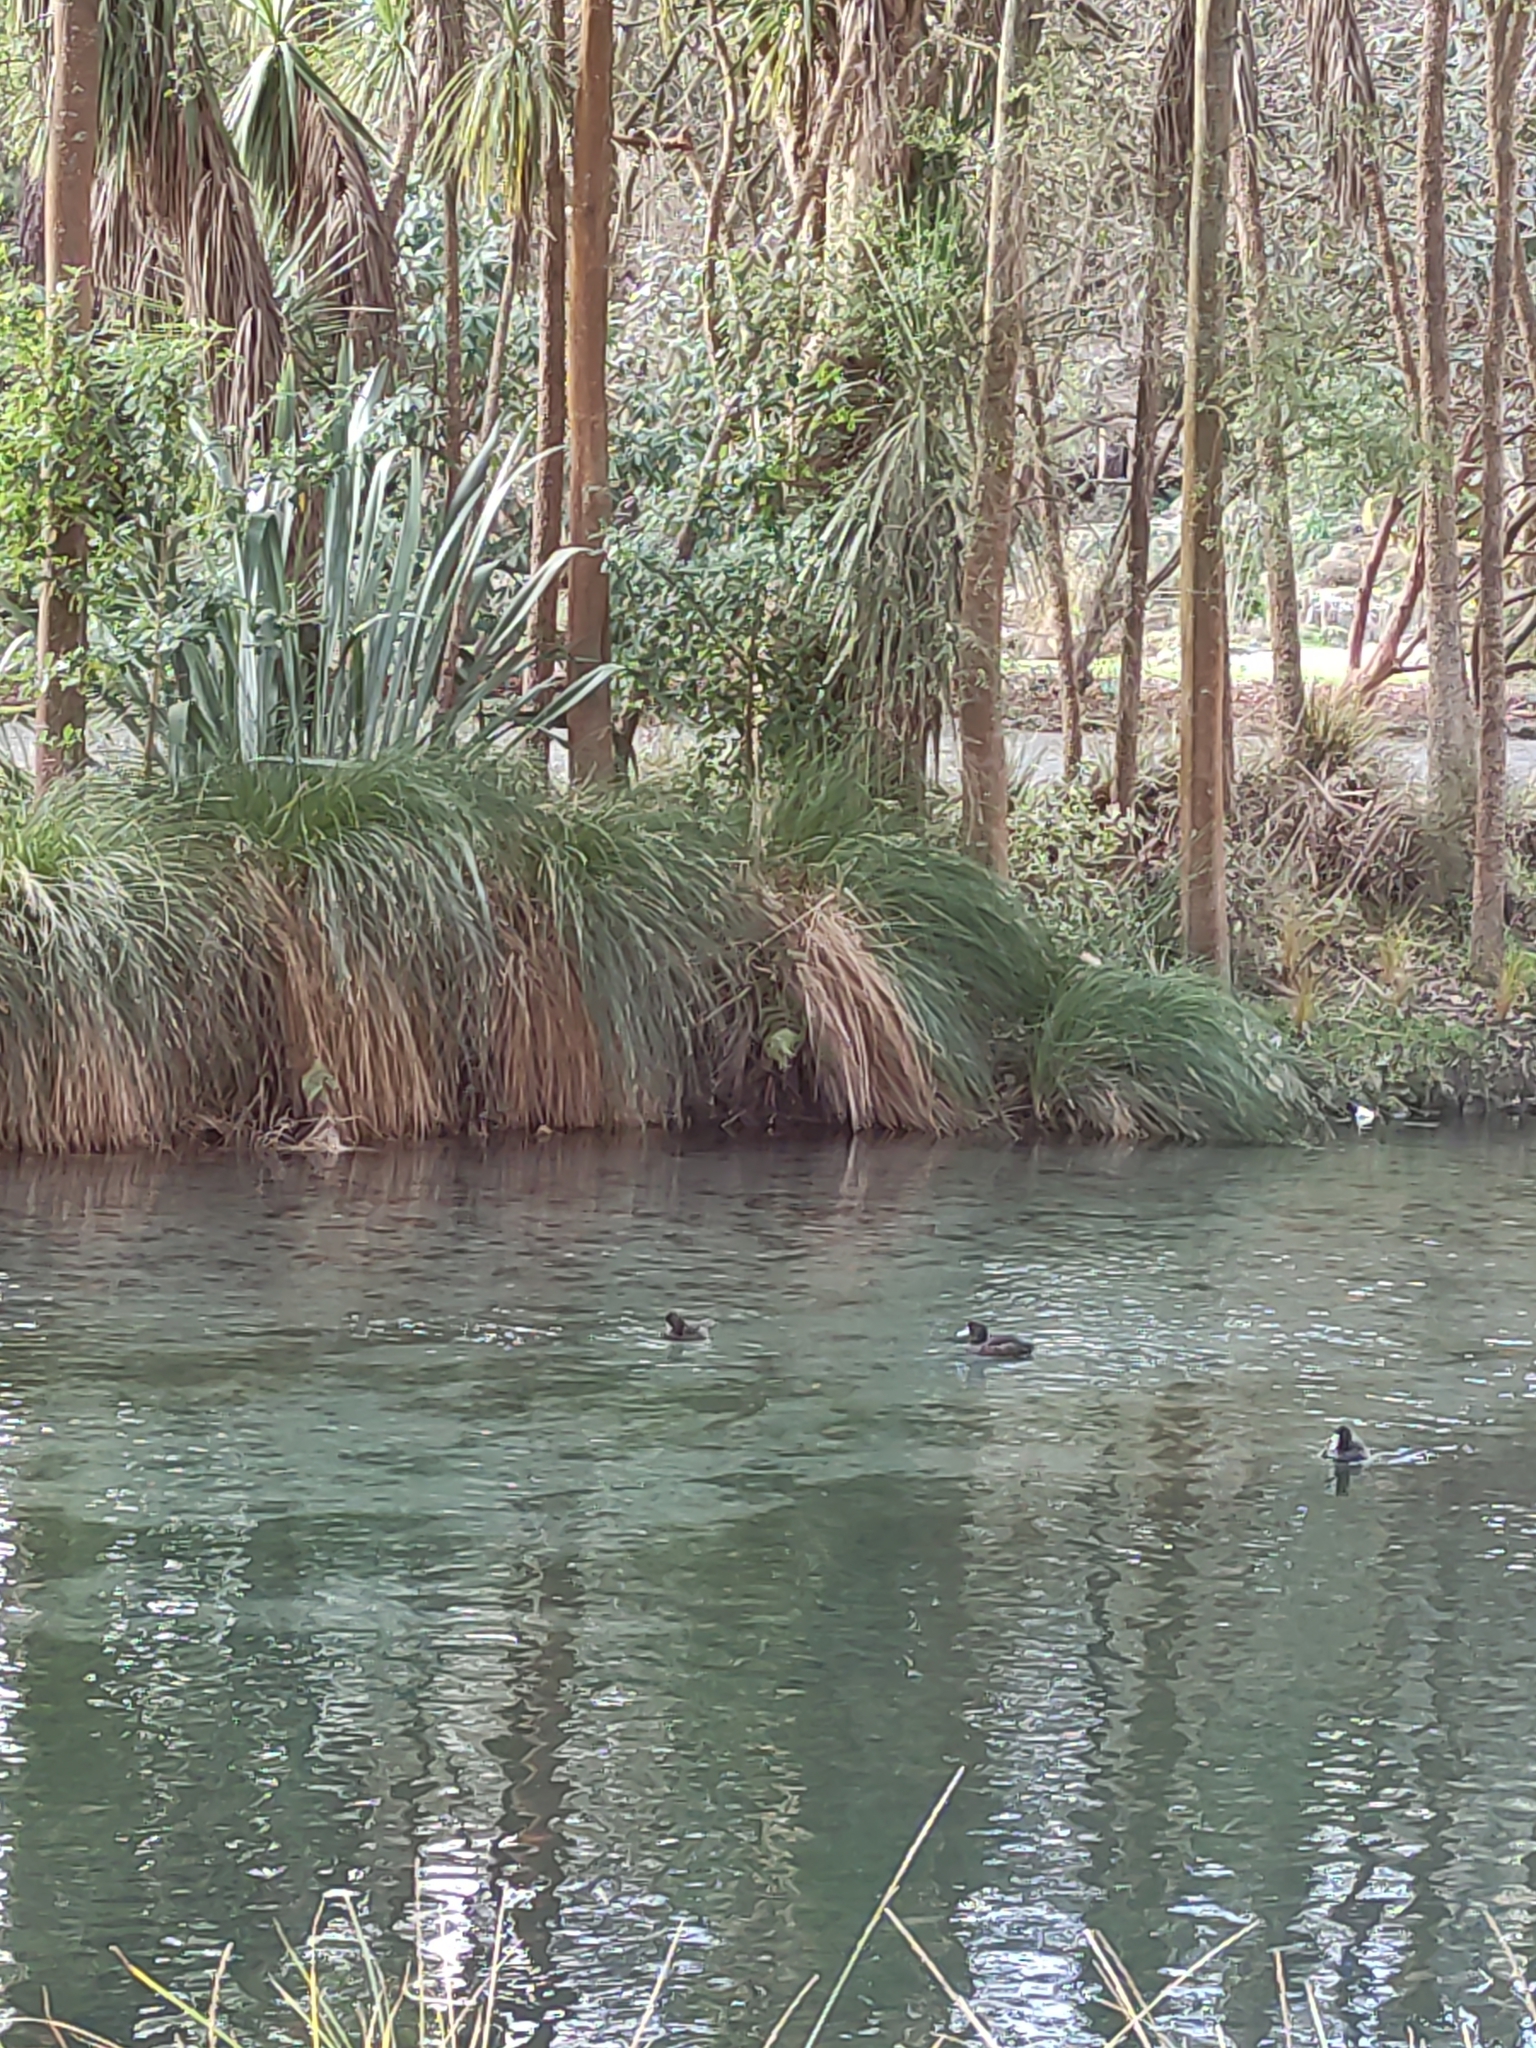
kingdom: Animalia
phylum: Chordata
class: Aves
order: Anseriformes
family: Anatidae
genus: Aythya
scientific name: Aythya novaeseelandiae
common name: New zealand scaup
